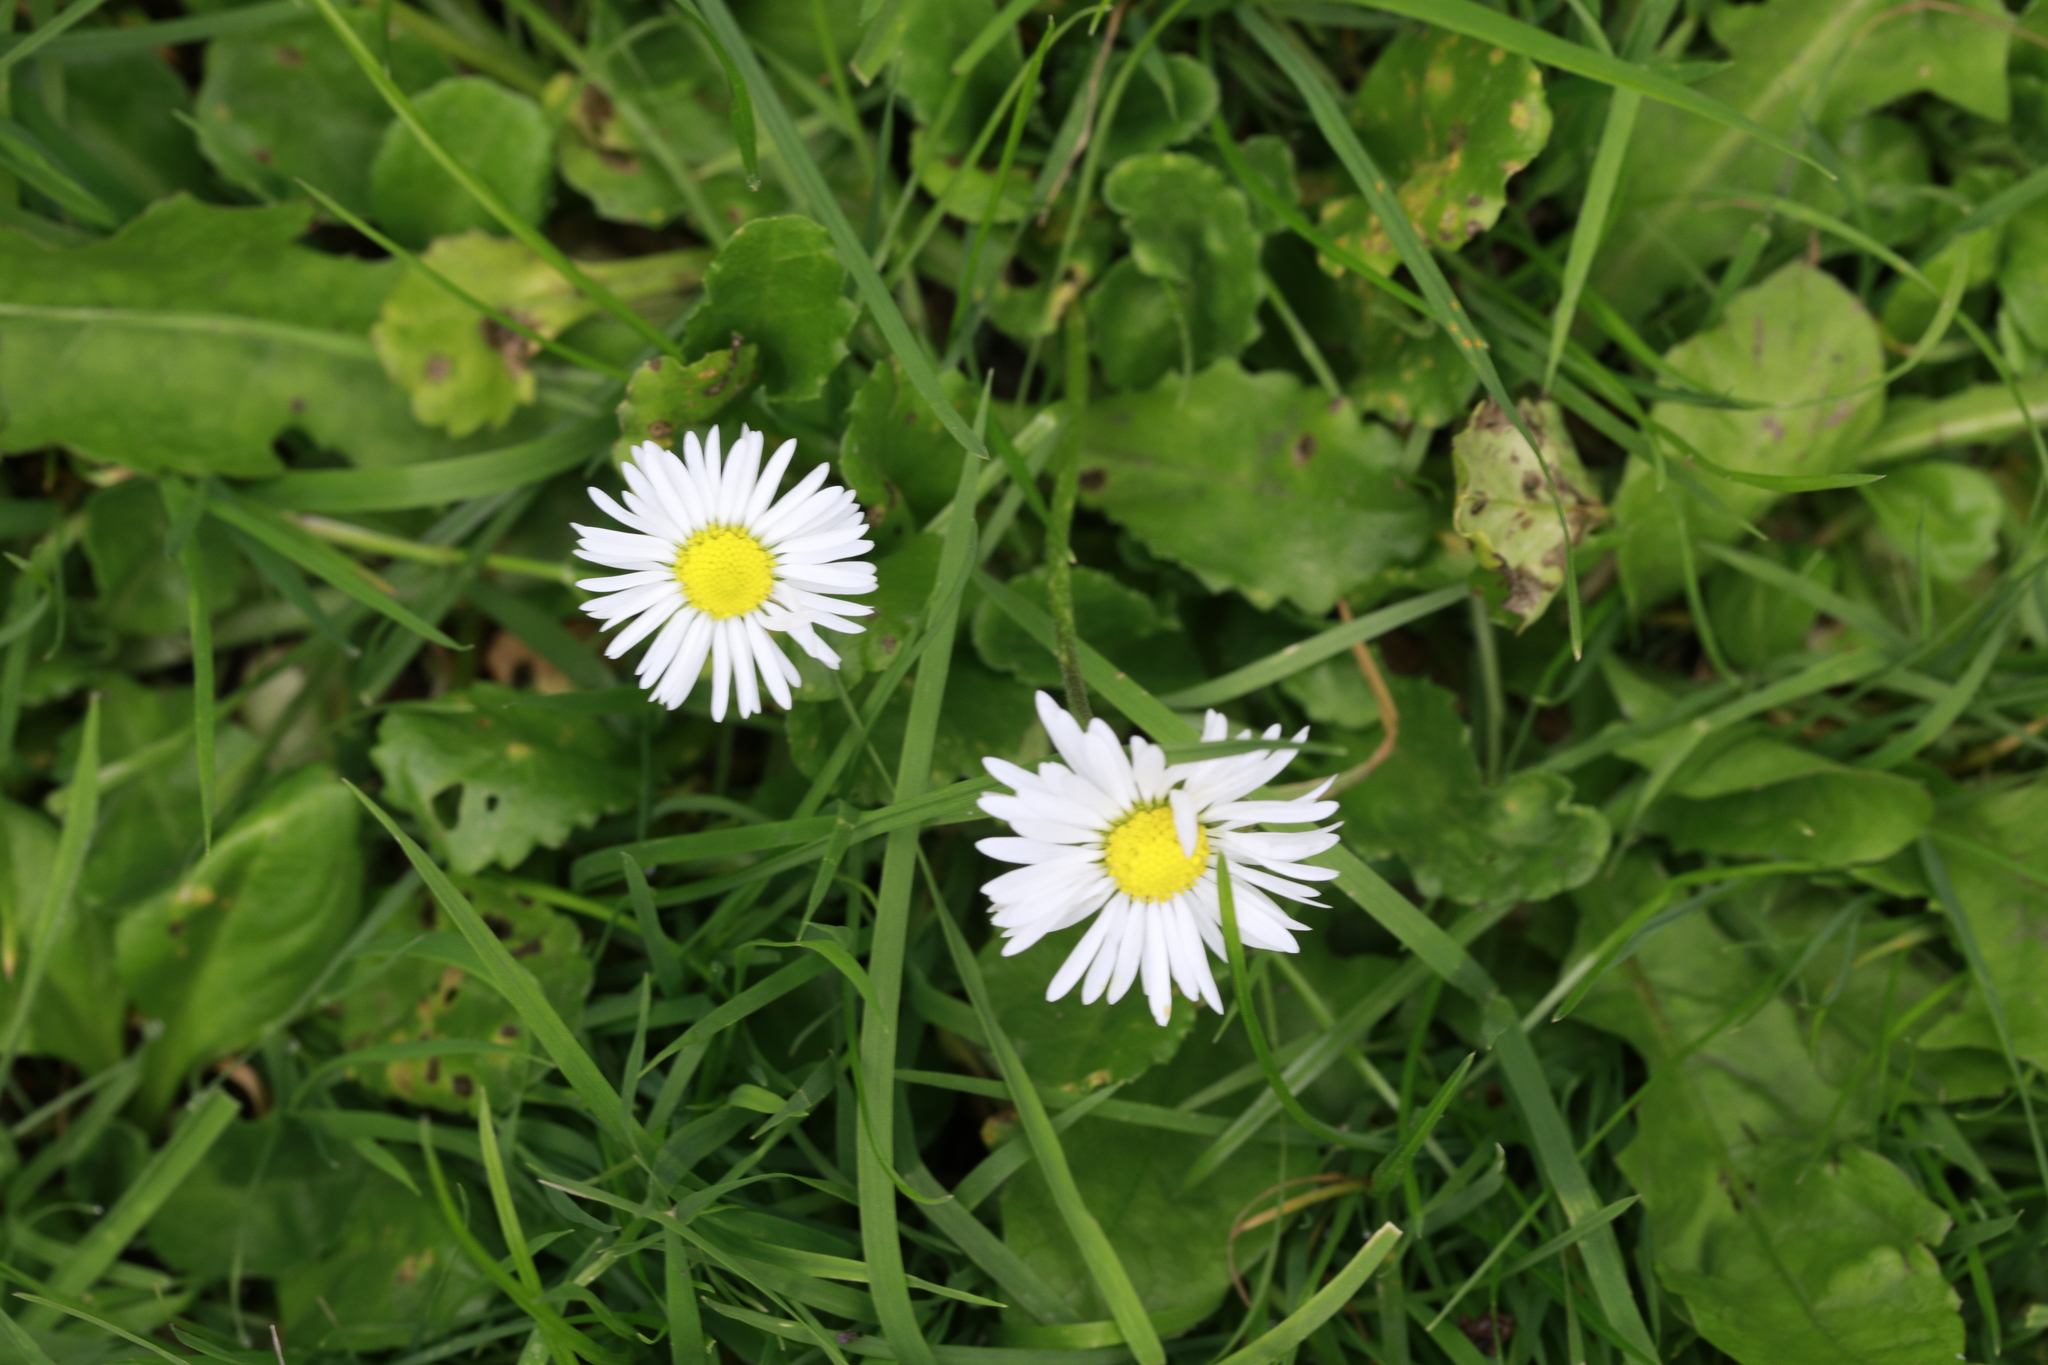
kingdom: Plantae
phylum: Tracheophyta
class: Magnoliopsida
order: Asterales
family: Asteraceae
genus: Bellis
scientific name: Bellis perennis
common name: Lawndaisy
